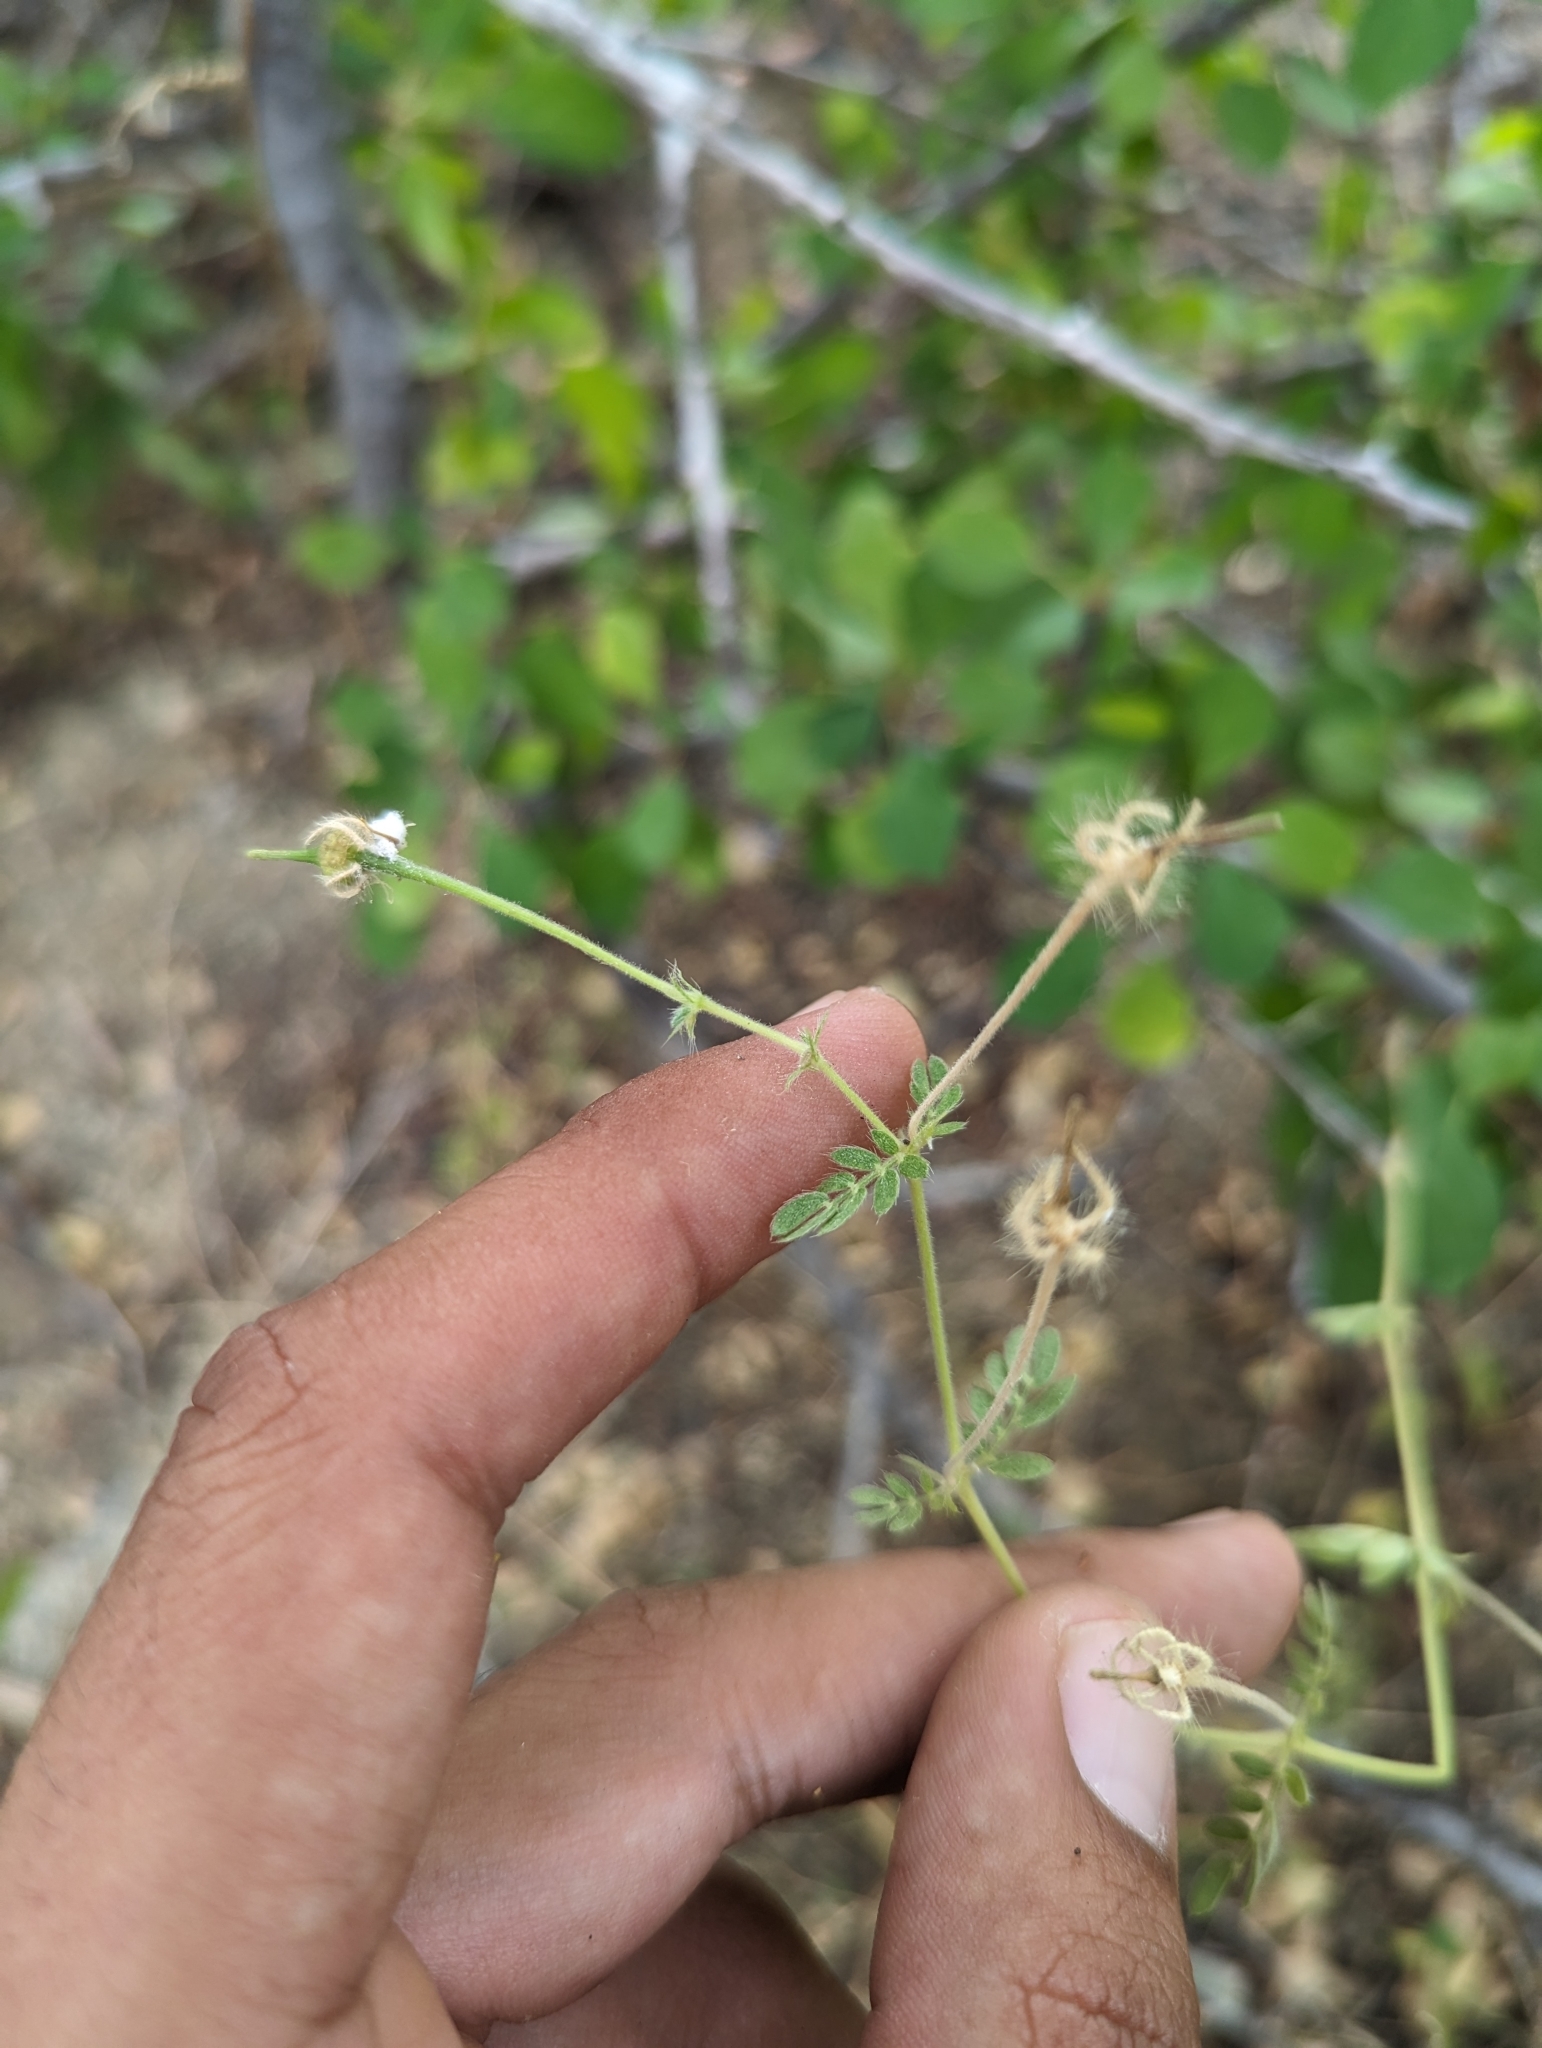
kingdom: Plantae
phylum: Tracheophyta
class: Magnoliopsida
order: Zygophyllales
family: Zygophyllaceae
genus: Kallstroemia
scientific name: Kallstroemia peninsularis
